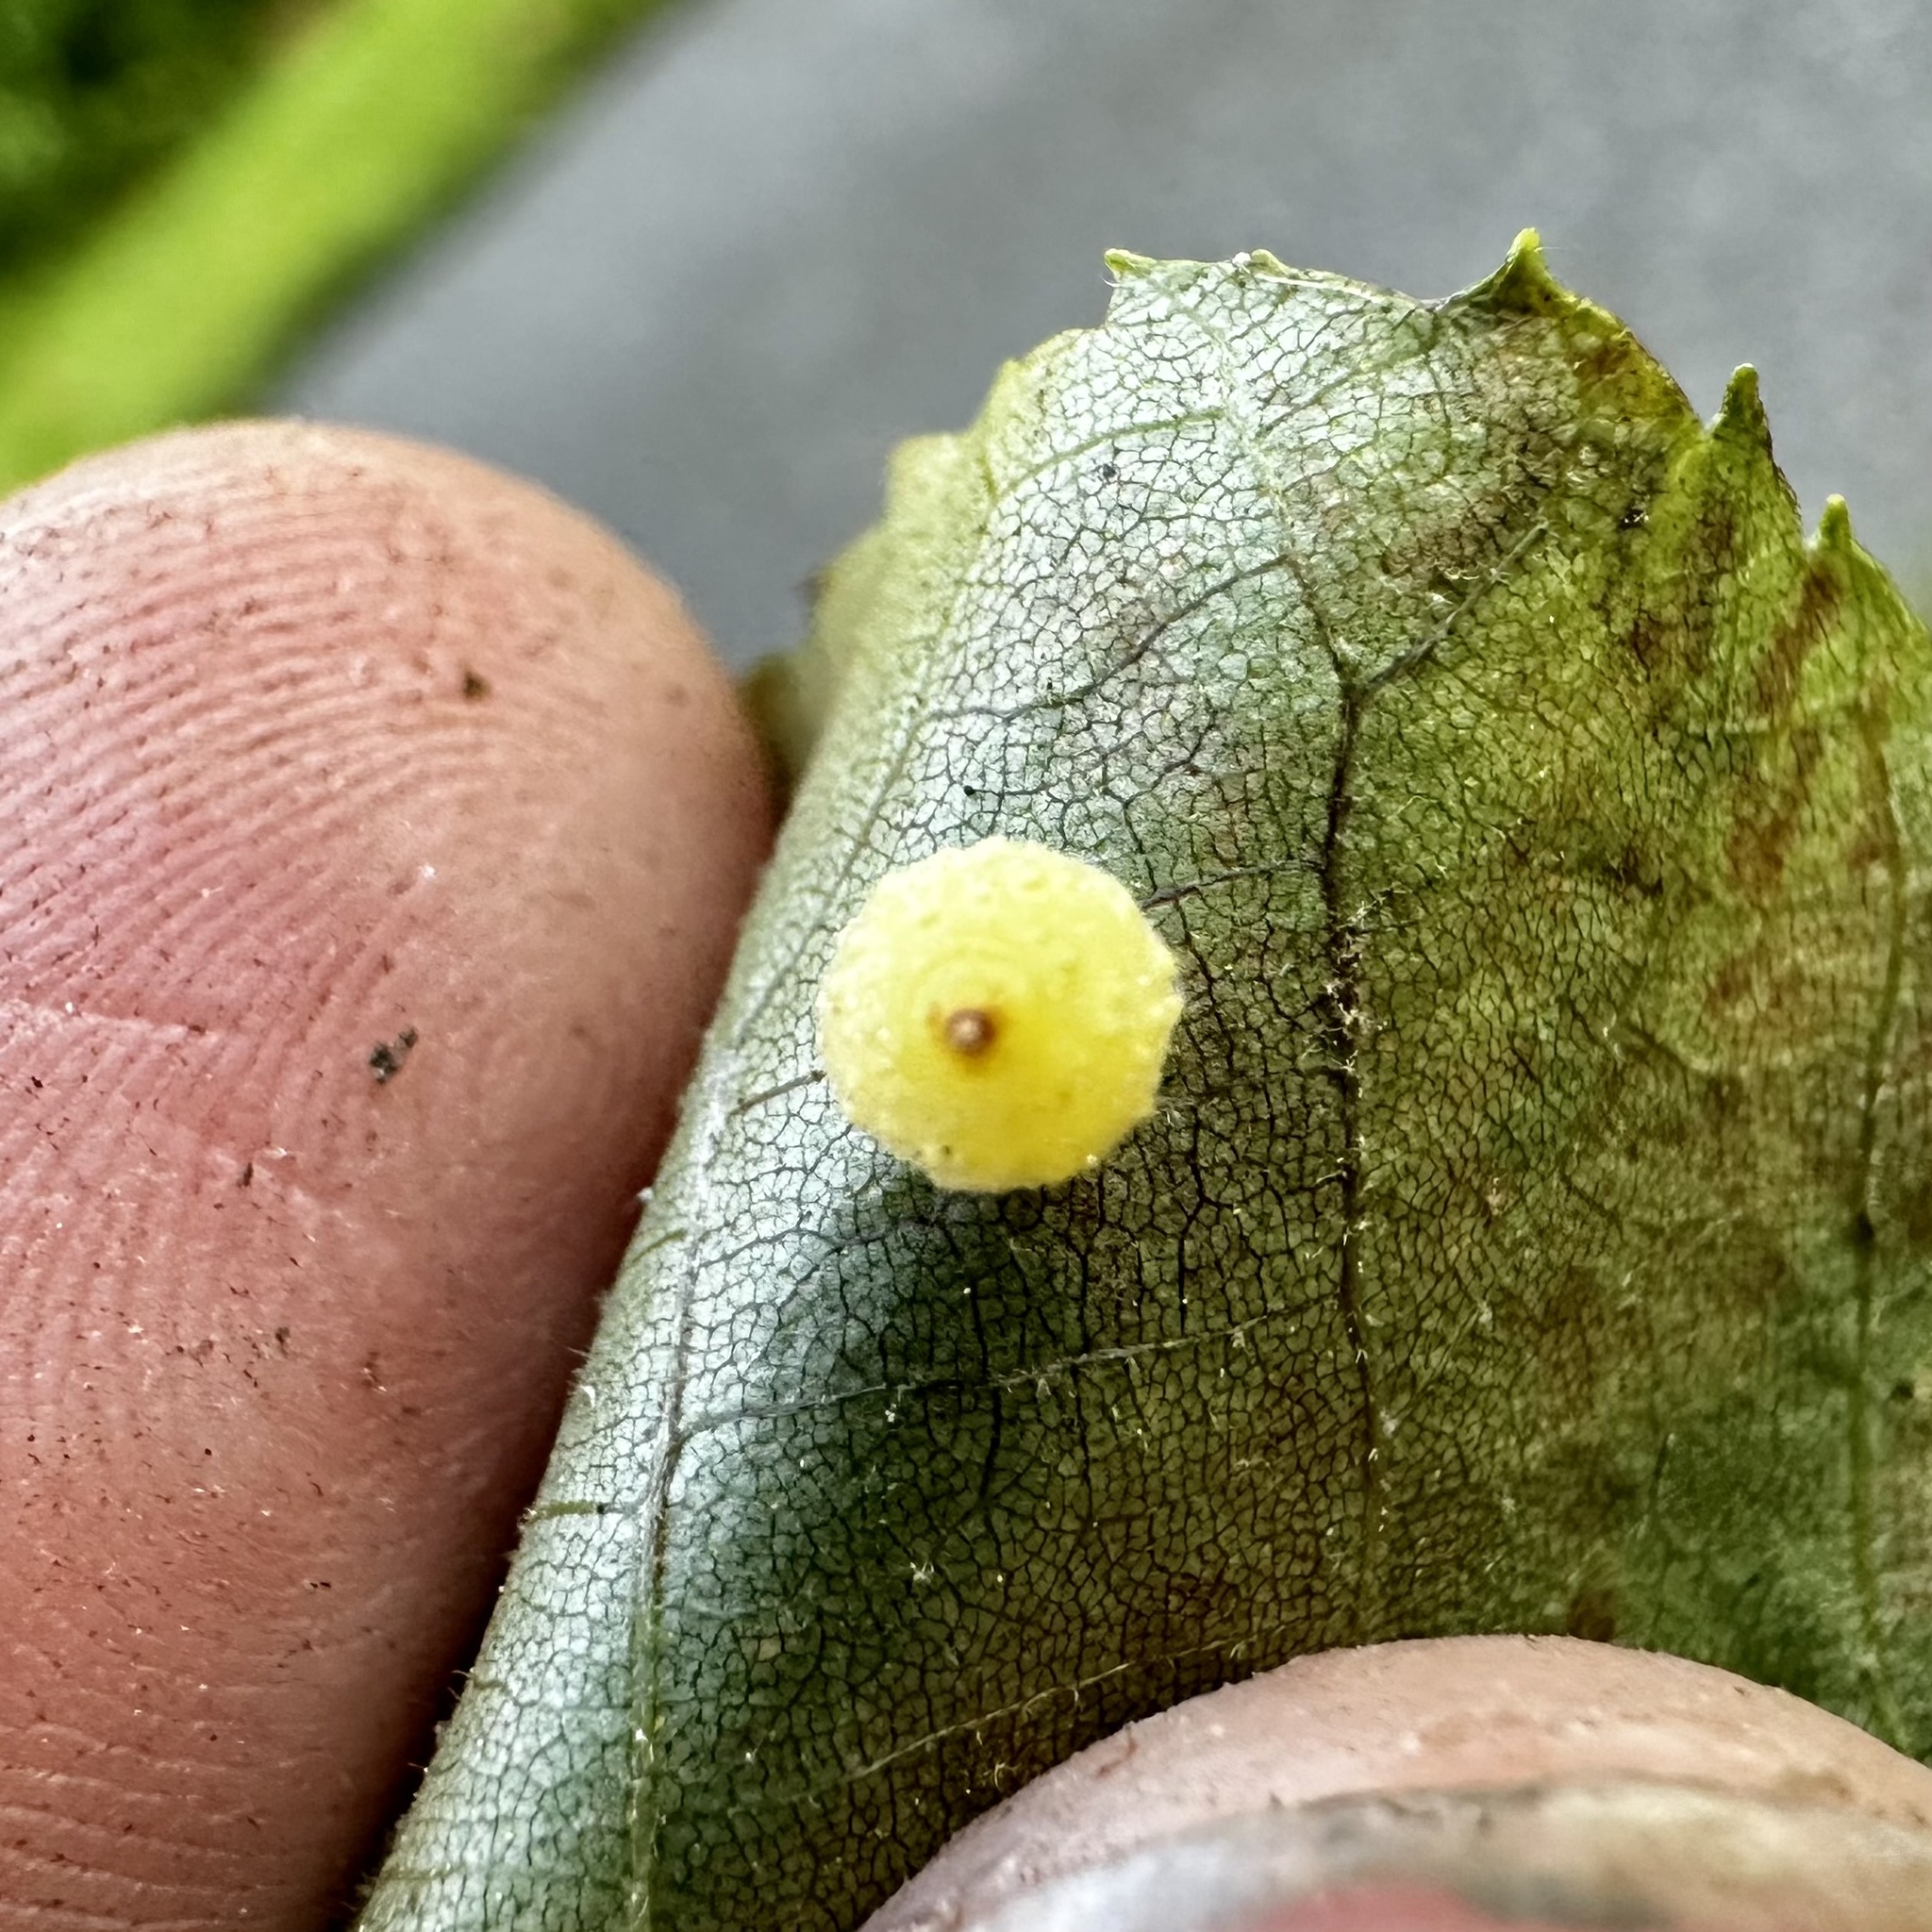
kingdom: Animalia
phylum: Arthropoda
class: Insecta
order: Diptera
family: Cecidomyiidae
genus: Caryomyia
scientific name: Caryomyia tuberidolium
